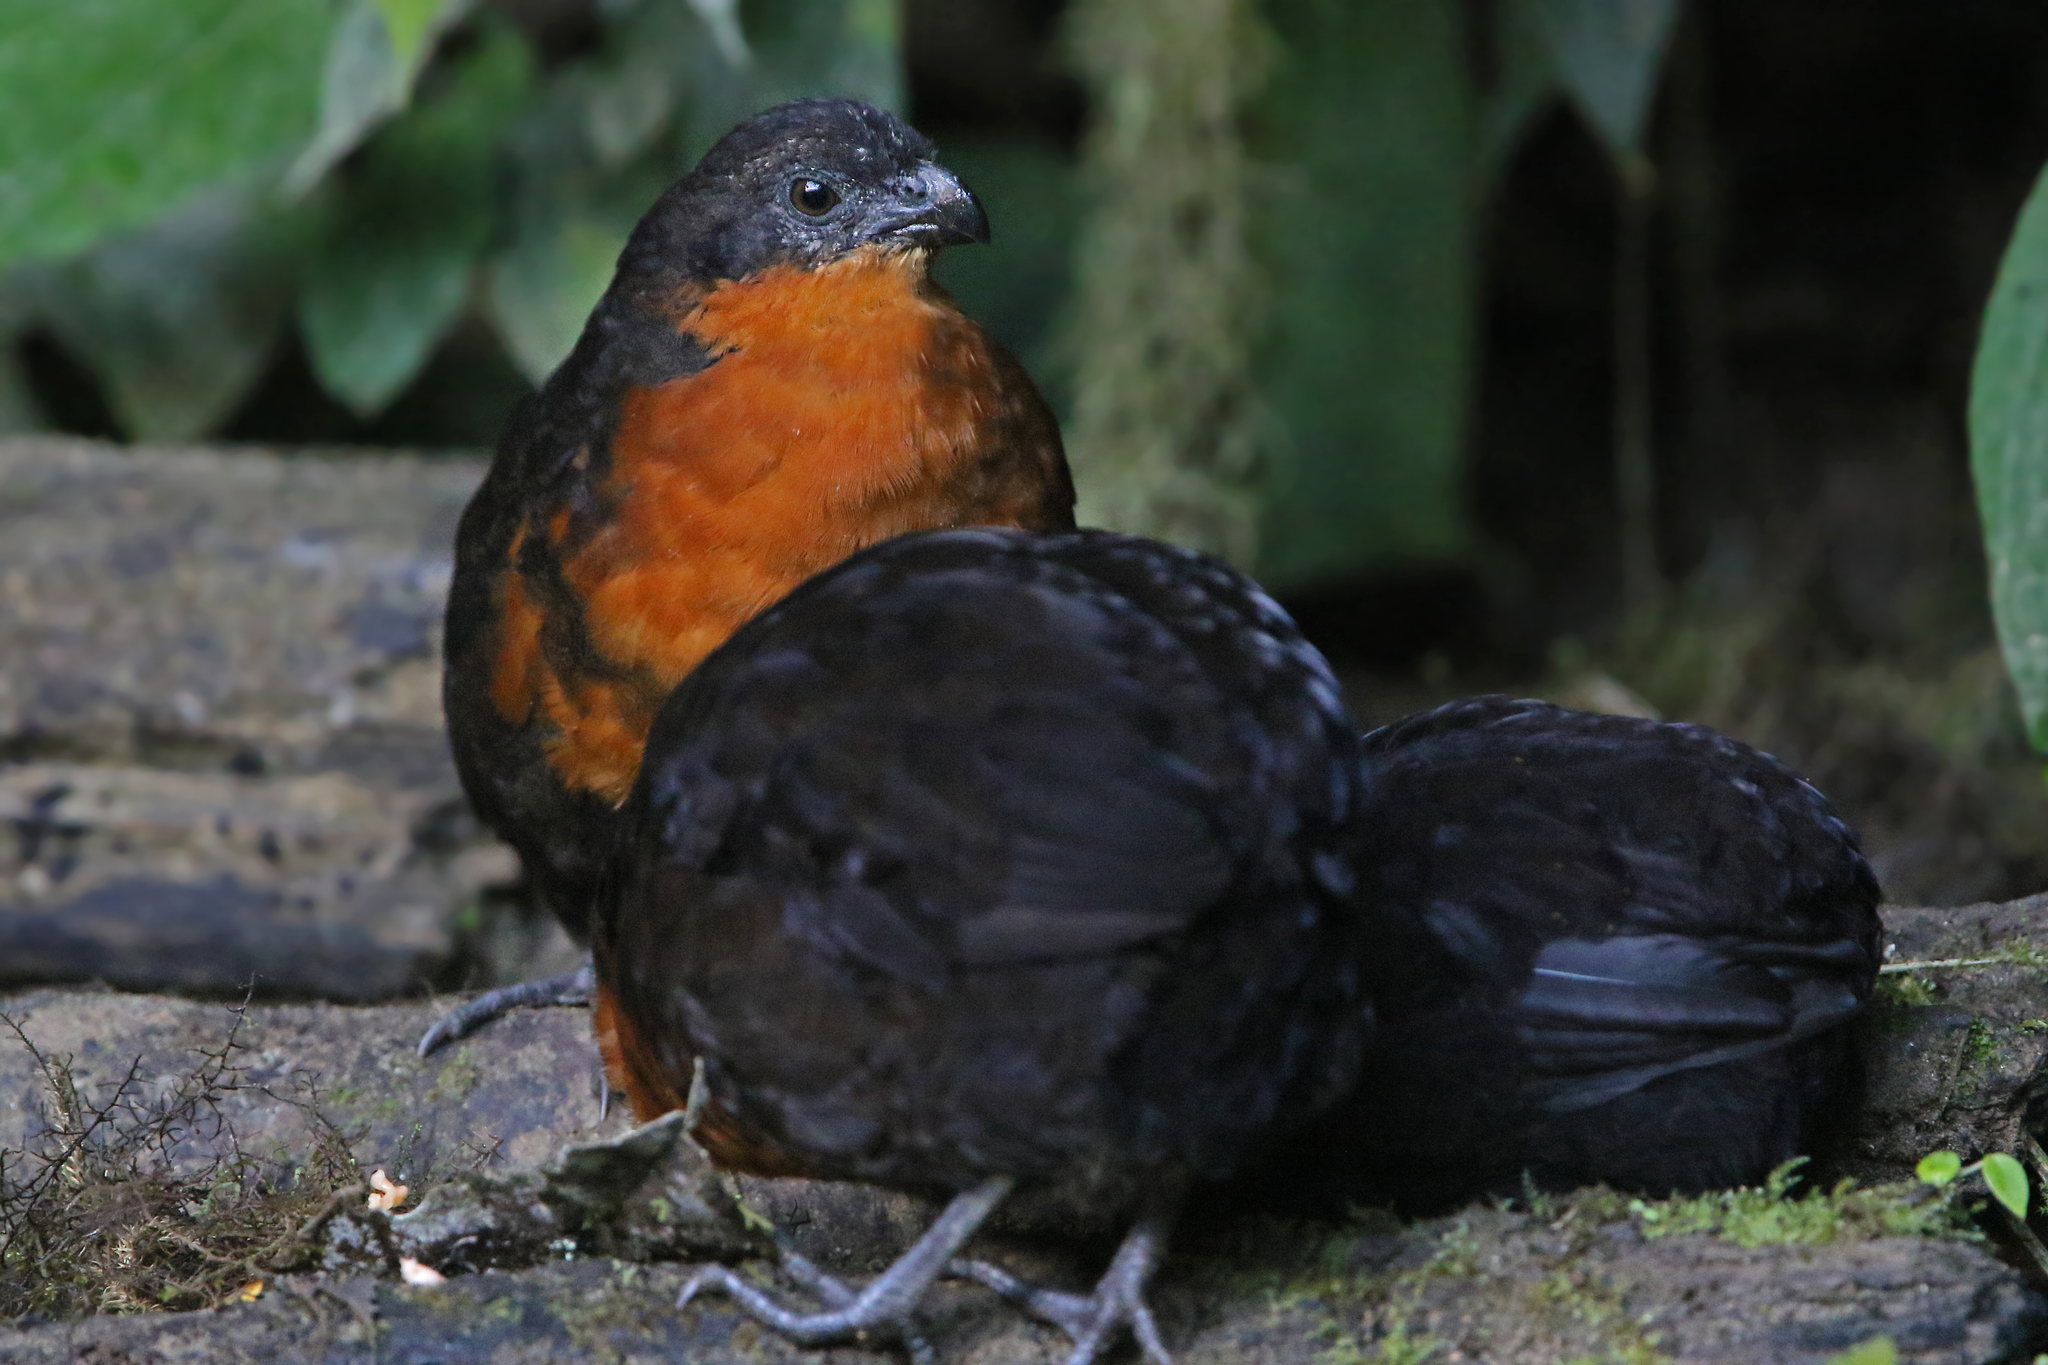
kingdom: Animalia
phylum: Chordata
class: Aves
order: Galliformes
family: Odontophoridae
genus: Odontophorus
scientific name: Odontophorus melanonotus
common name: Dark-backed wood-quail
